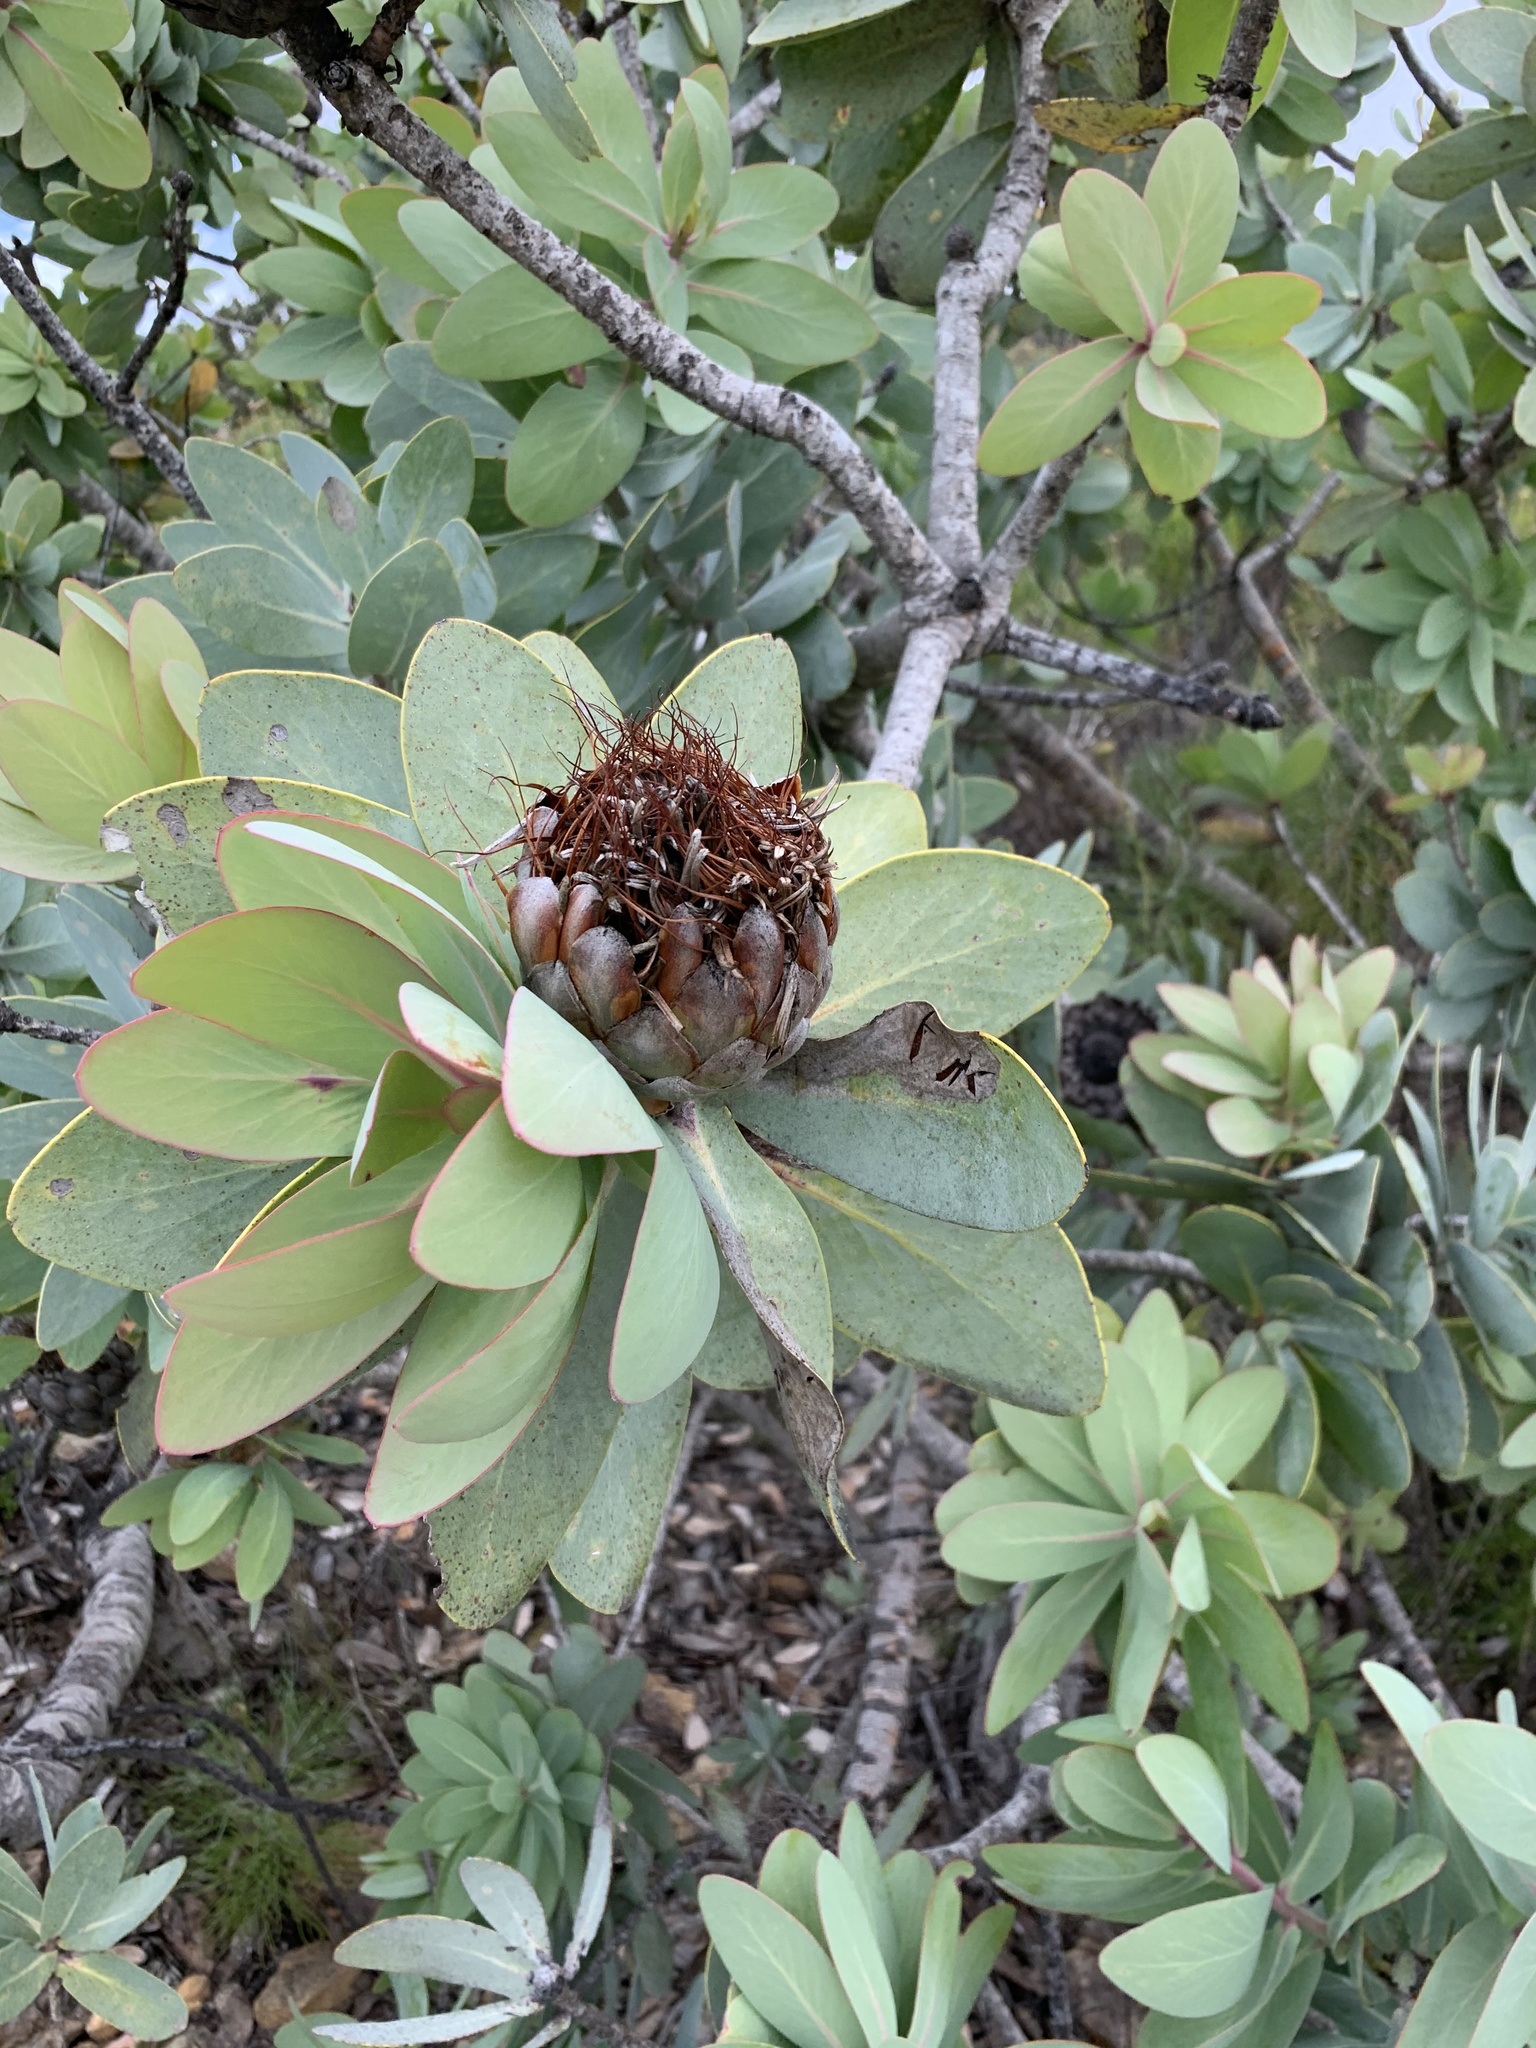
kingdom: Plantae
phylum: Tracheophyta
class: Magnoliopsida
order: Proteales
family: Proteaceae
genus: Protea
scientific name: Protea nitida
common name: Tree protea
